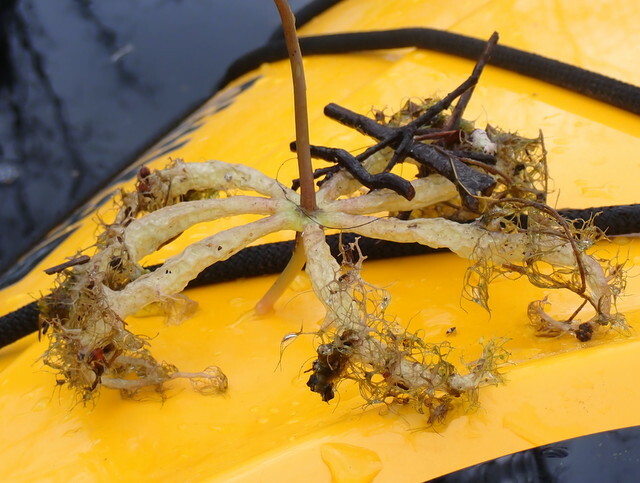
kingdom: Plantae
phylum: Tracheophyta
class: Magnoliopsida
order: Lamiales
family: Lentibulariaceae
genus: Utricularia
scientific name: Utricularia inflata
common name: Floating bladderwort
